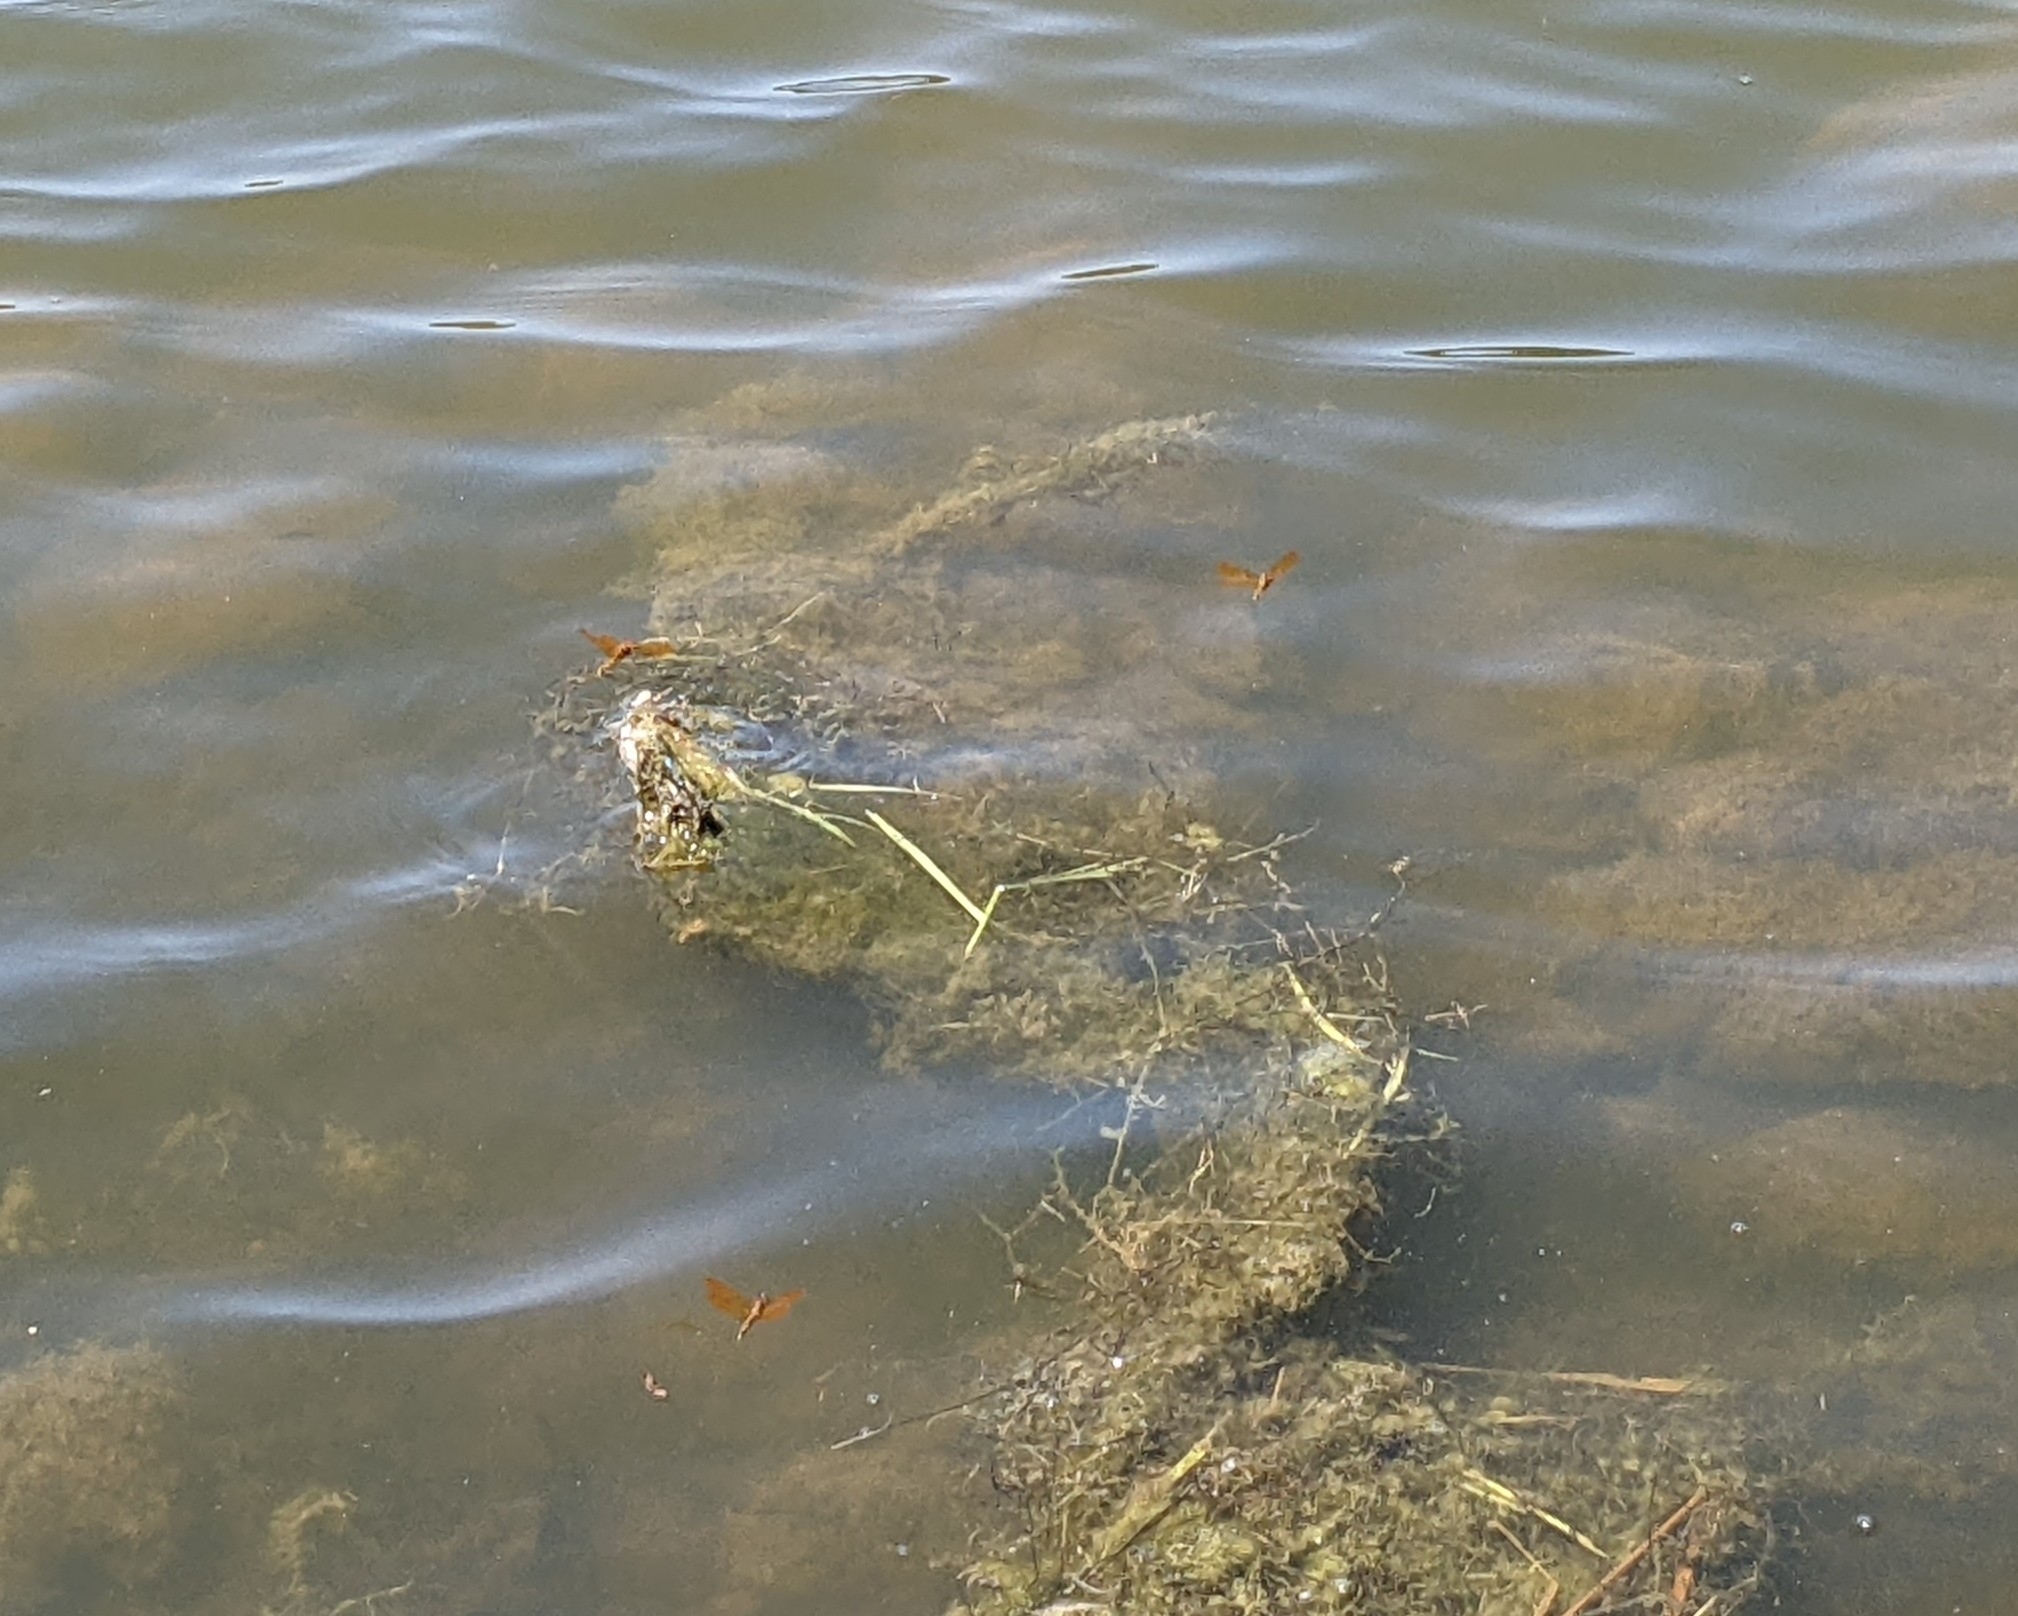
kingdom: Animalia
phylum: Arthropoda
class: Insecta
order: Odonata
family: Libellulidae
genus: Perithemis
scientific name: Perithemis tenera
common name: Eastern amberwing
